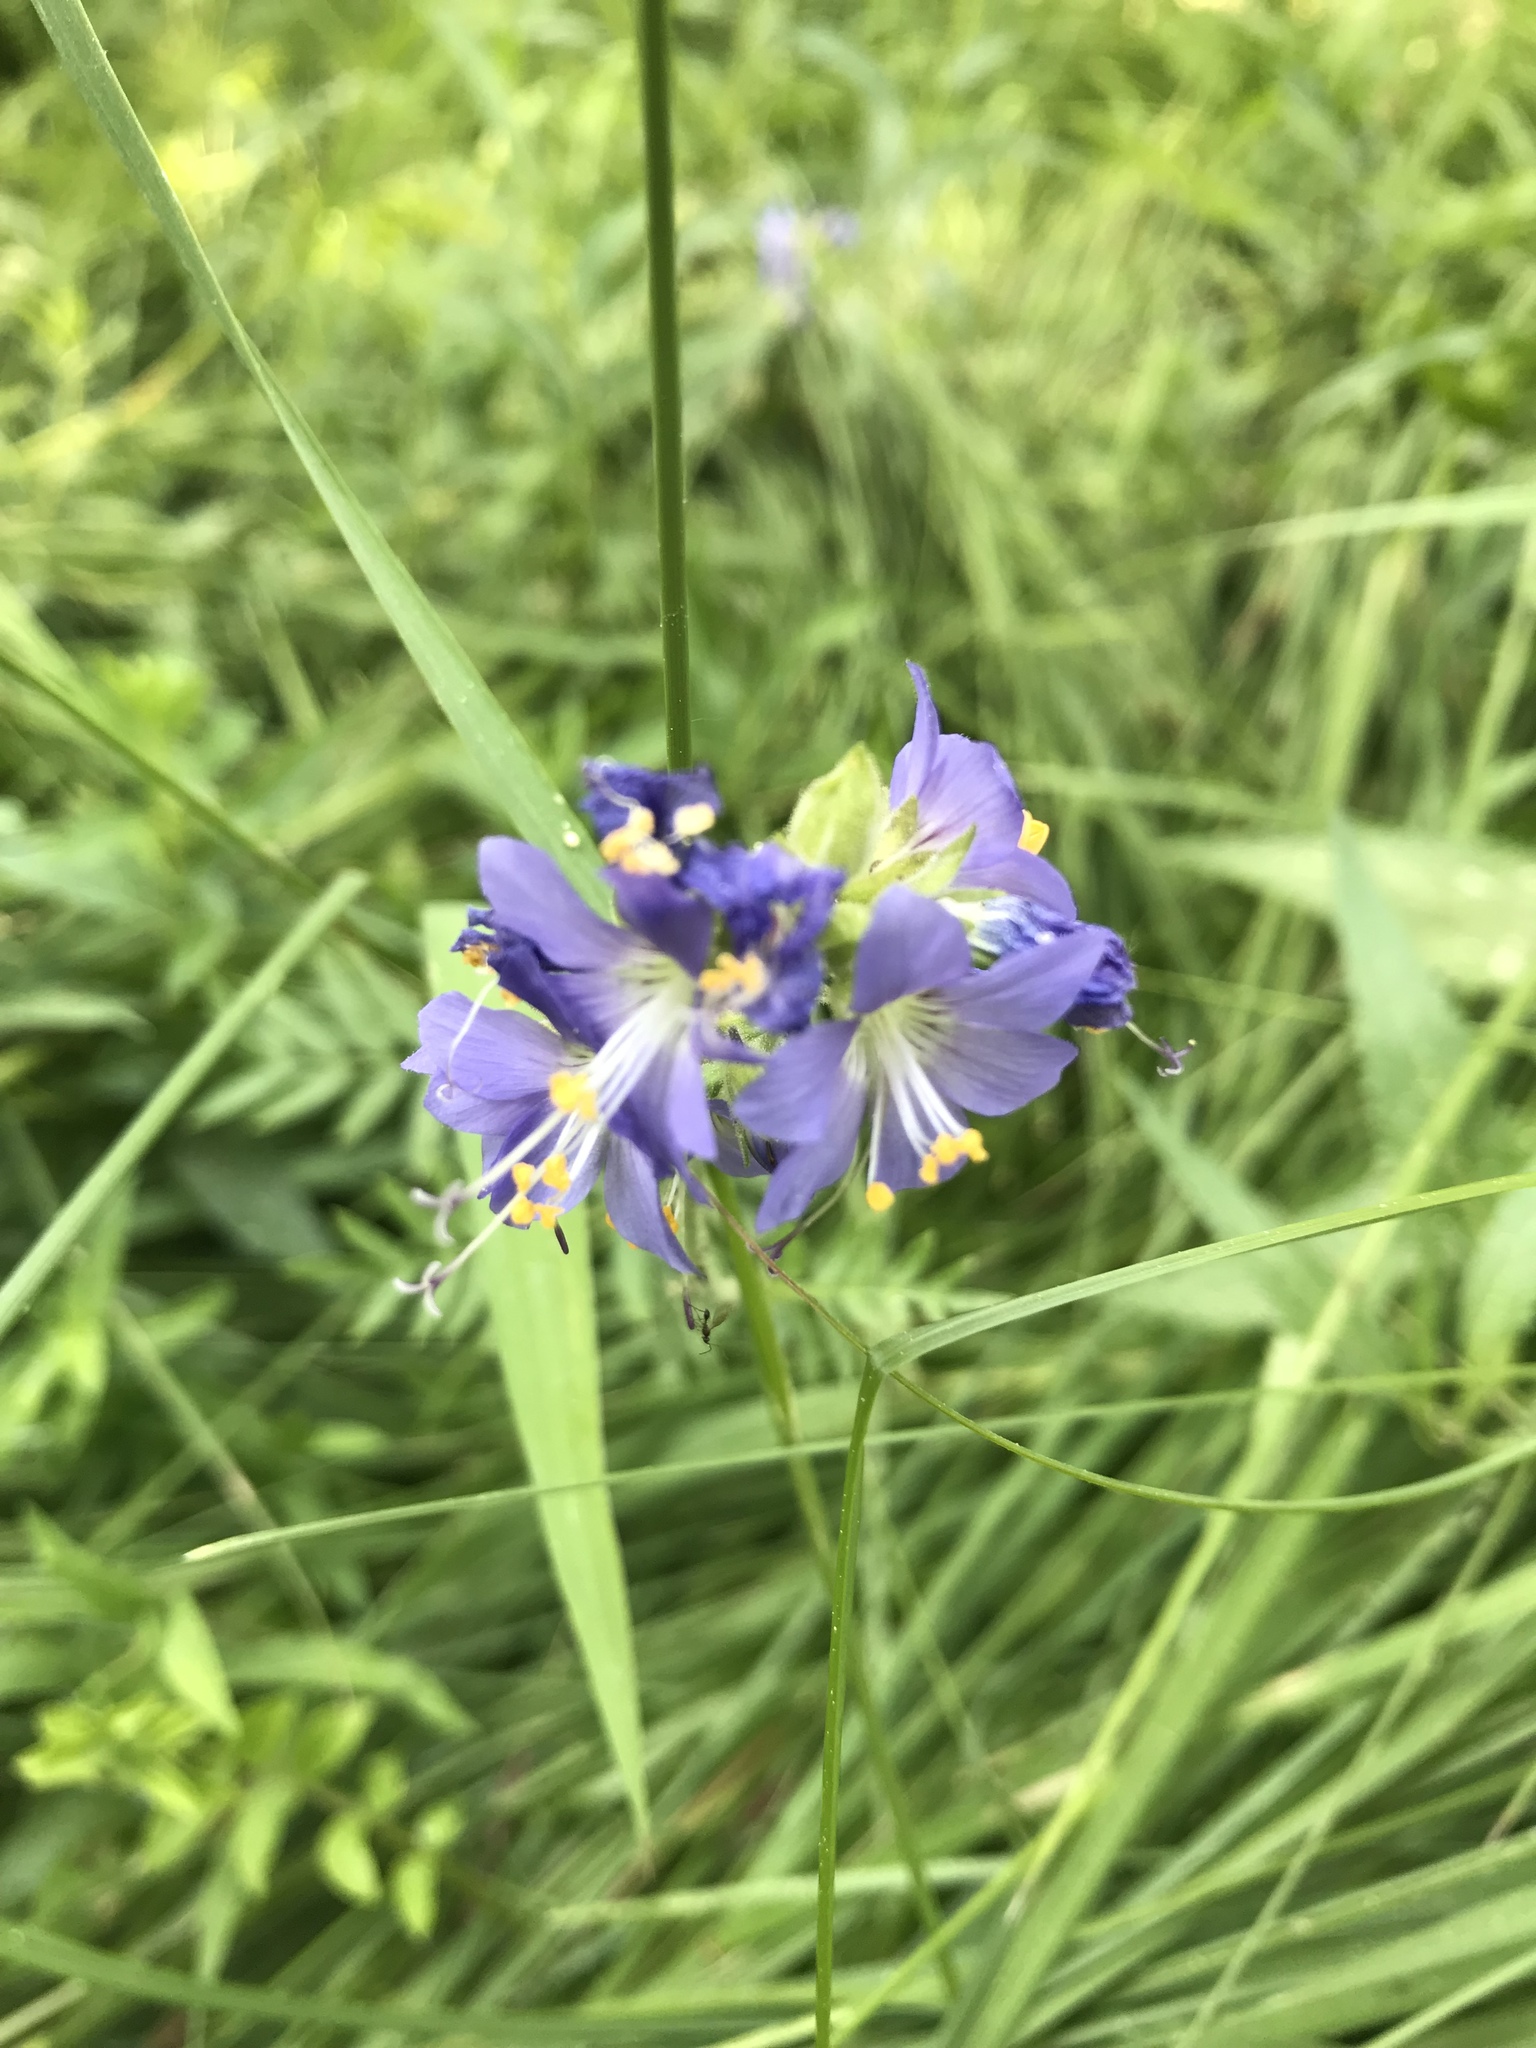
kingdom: Plantae
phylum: Tracheophyta
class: Magnoliopsida
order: Ericales
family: Polemoniaceae
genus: Polemonium
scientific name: Polemonium occidentale
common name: Western jacob's-ladder
